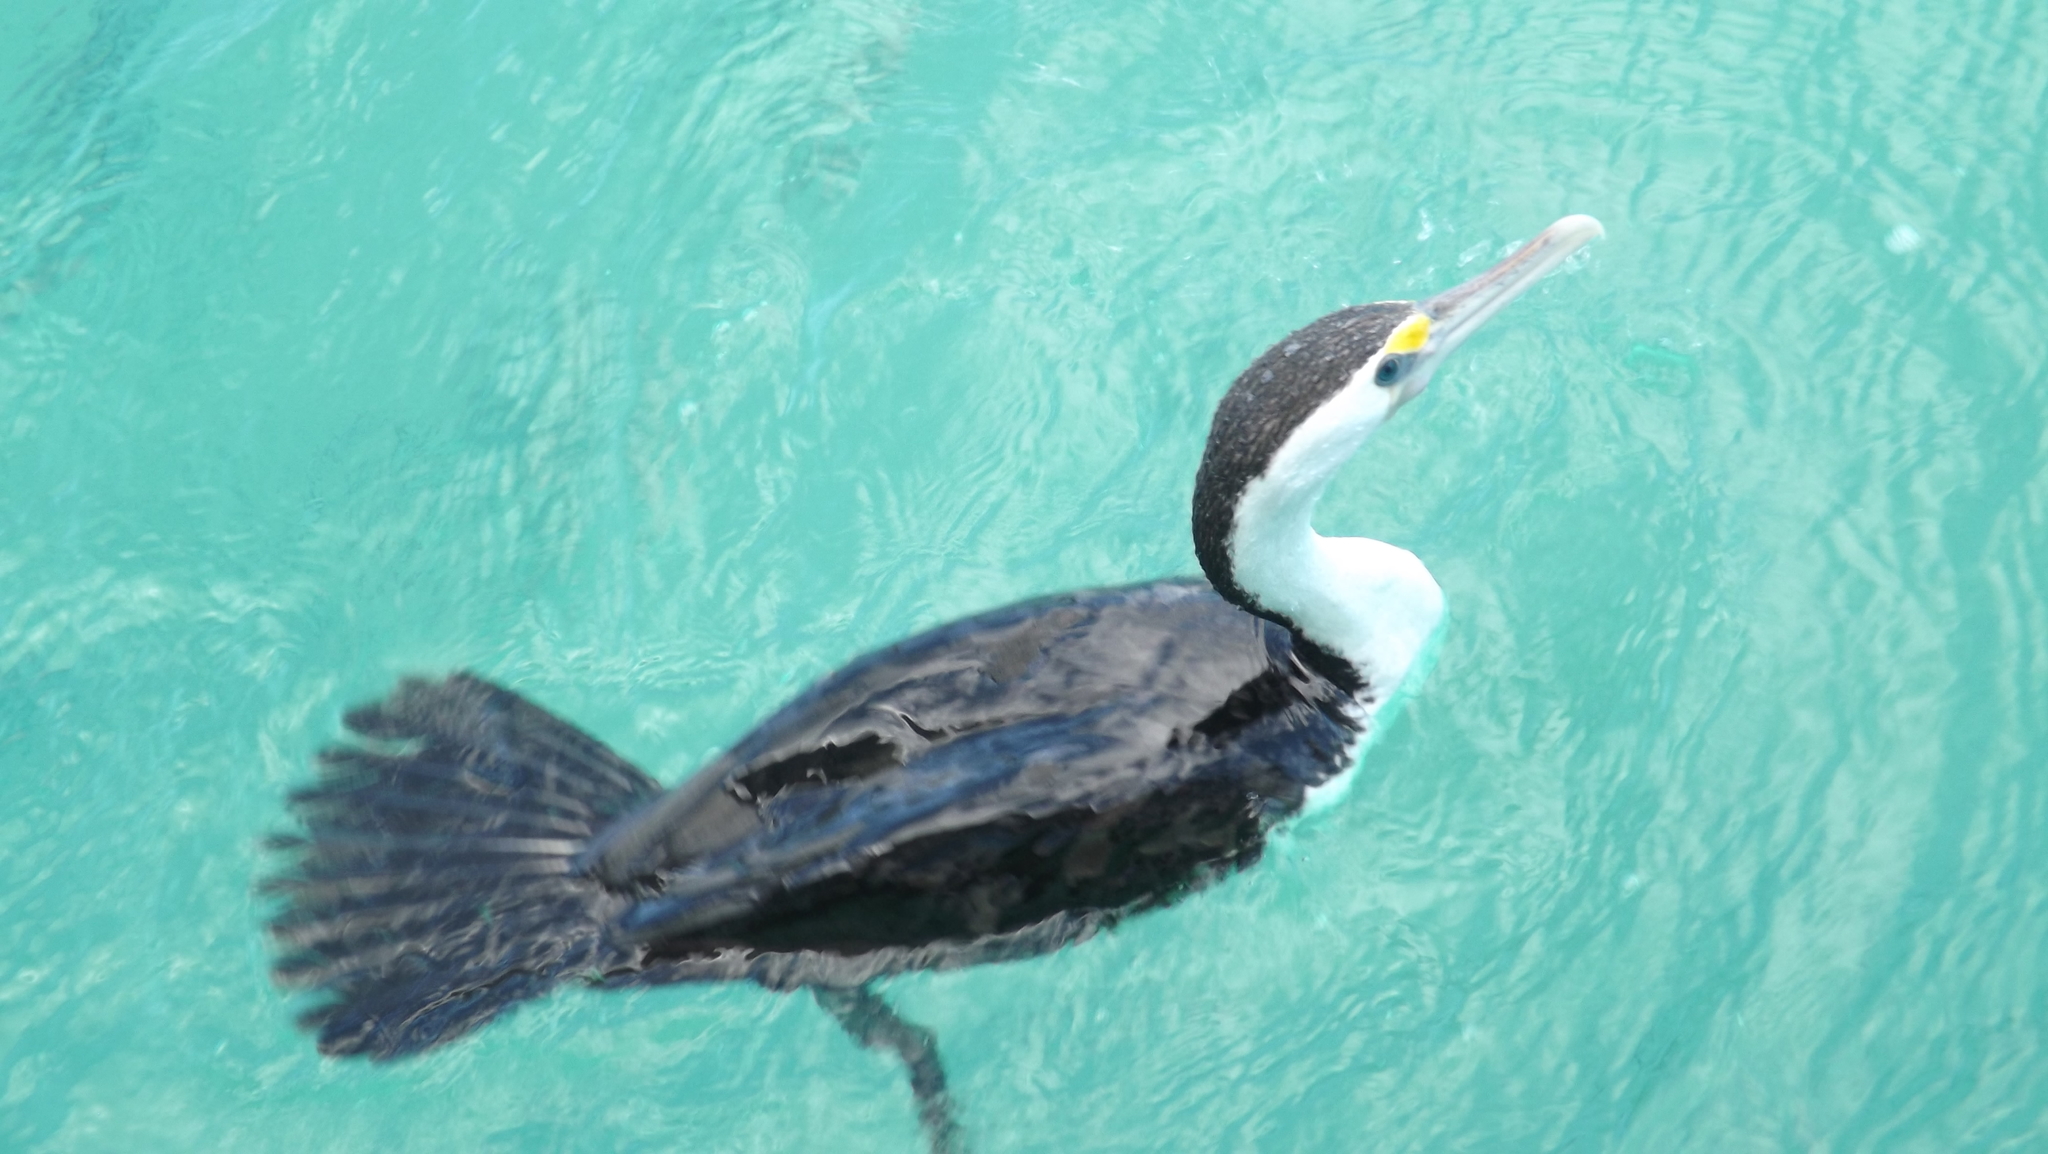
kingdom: Animalia
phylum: Chordata
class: Aves
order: Suliformes
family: Phalacrocoracidae
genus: Phalacrocorax
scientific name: Phalacrocorax varius
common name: Pied cormorant
